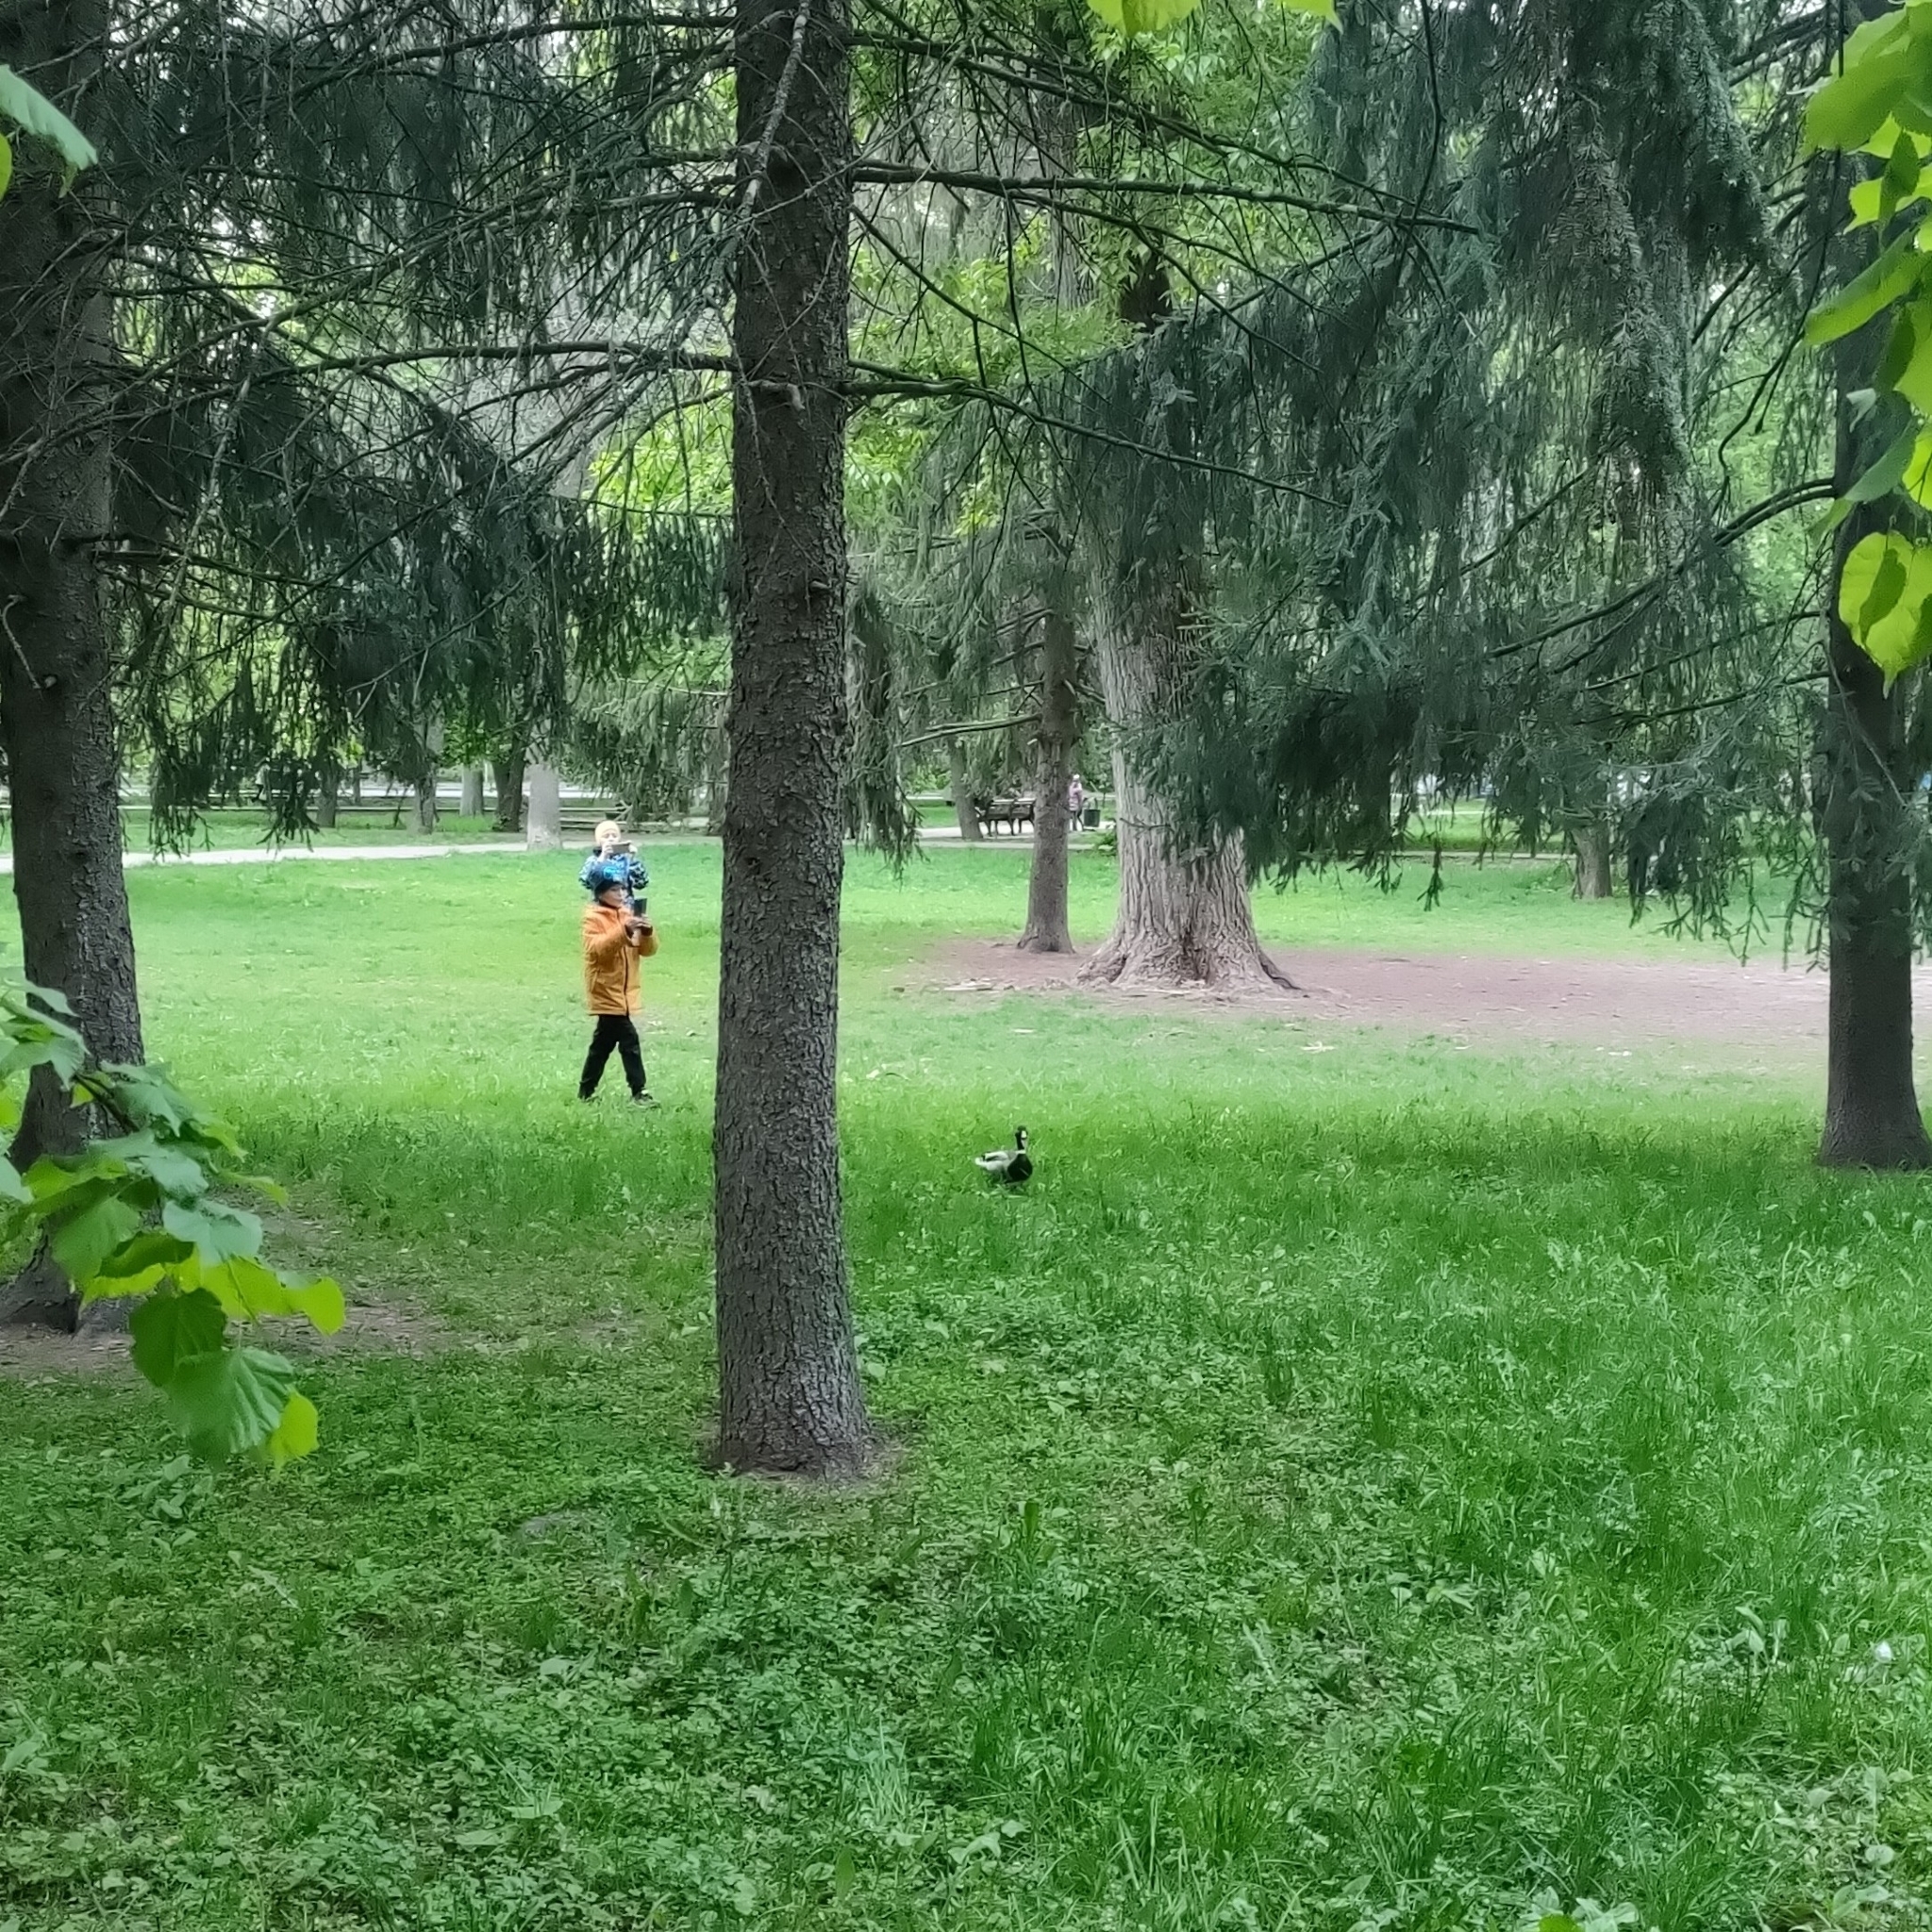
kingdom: Animalia
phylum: Chordata
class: Aves
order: Anseriformes
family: Anatidae
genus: Anas
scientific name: Anas platyrhynchos
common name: Mallard
